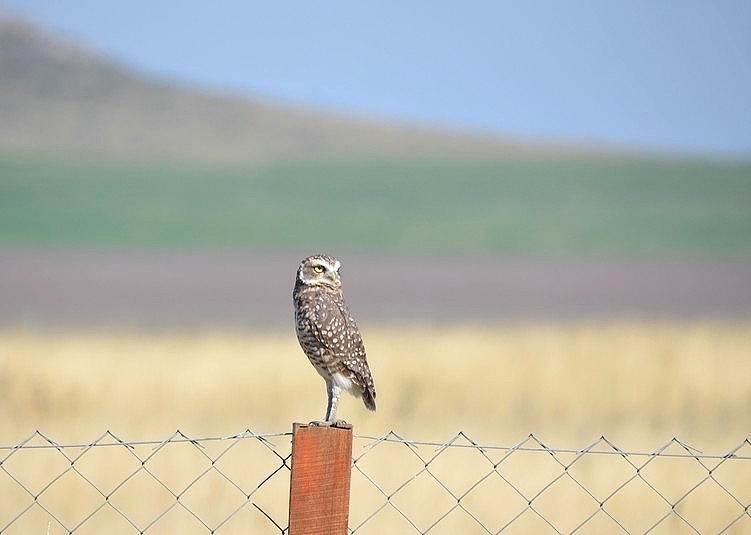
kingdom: Animalia
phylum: Chordata
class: Aves
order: Strigiformes
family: Strigidae
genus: Athene
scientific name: Athene cunicularia
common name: Burrowing owl
